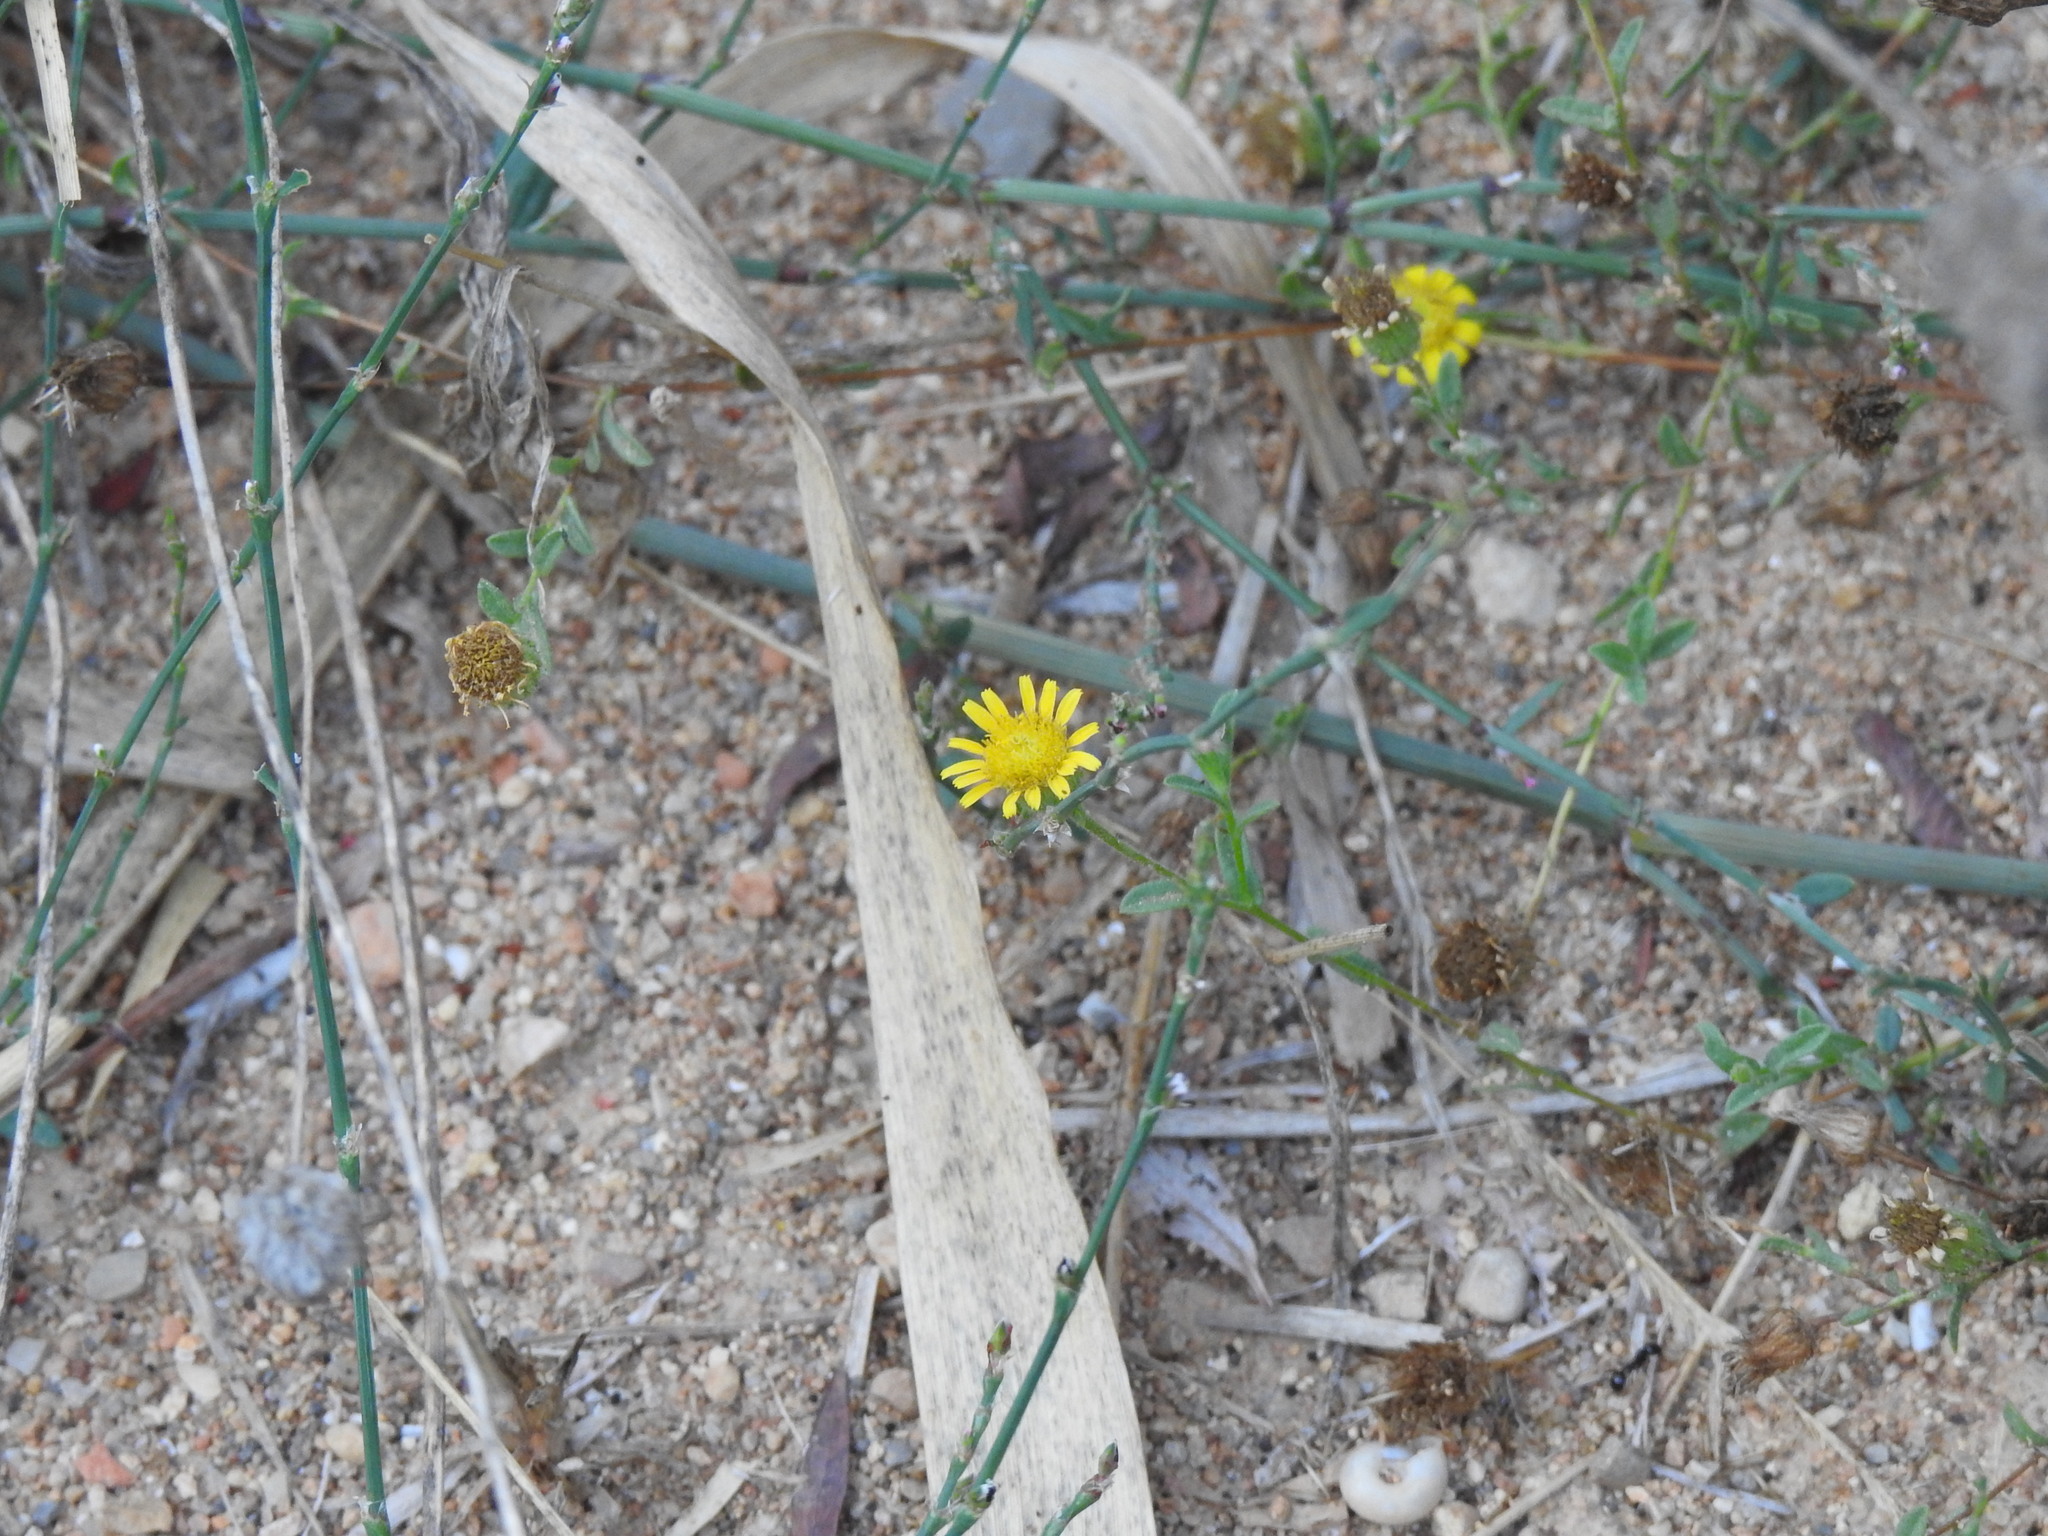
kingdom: Plantae
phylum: Tracheophyta
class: Magnoliopsida
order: Asterales
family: Asteraceae
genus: Pulicaria
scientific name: Pulicaria paludosa
